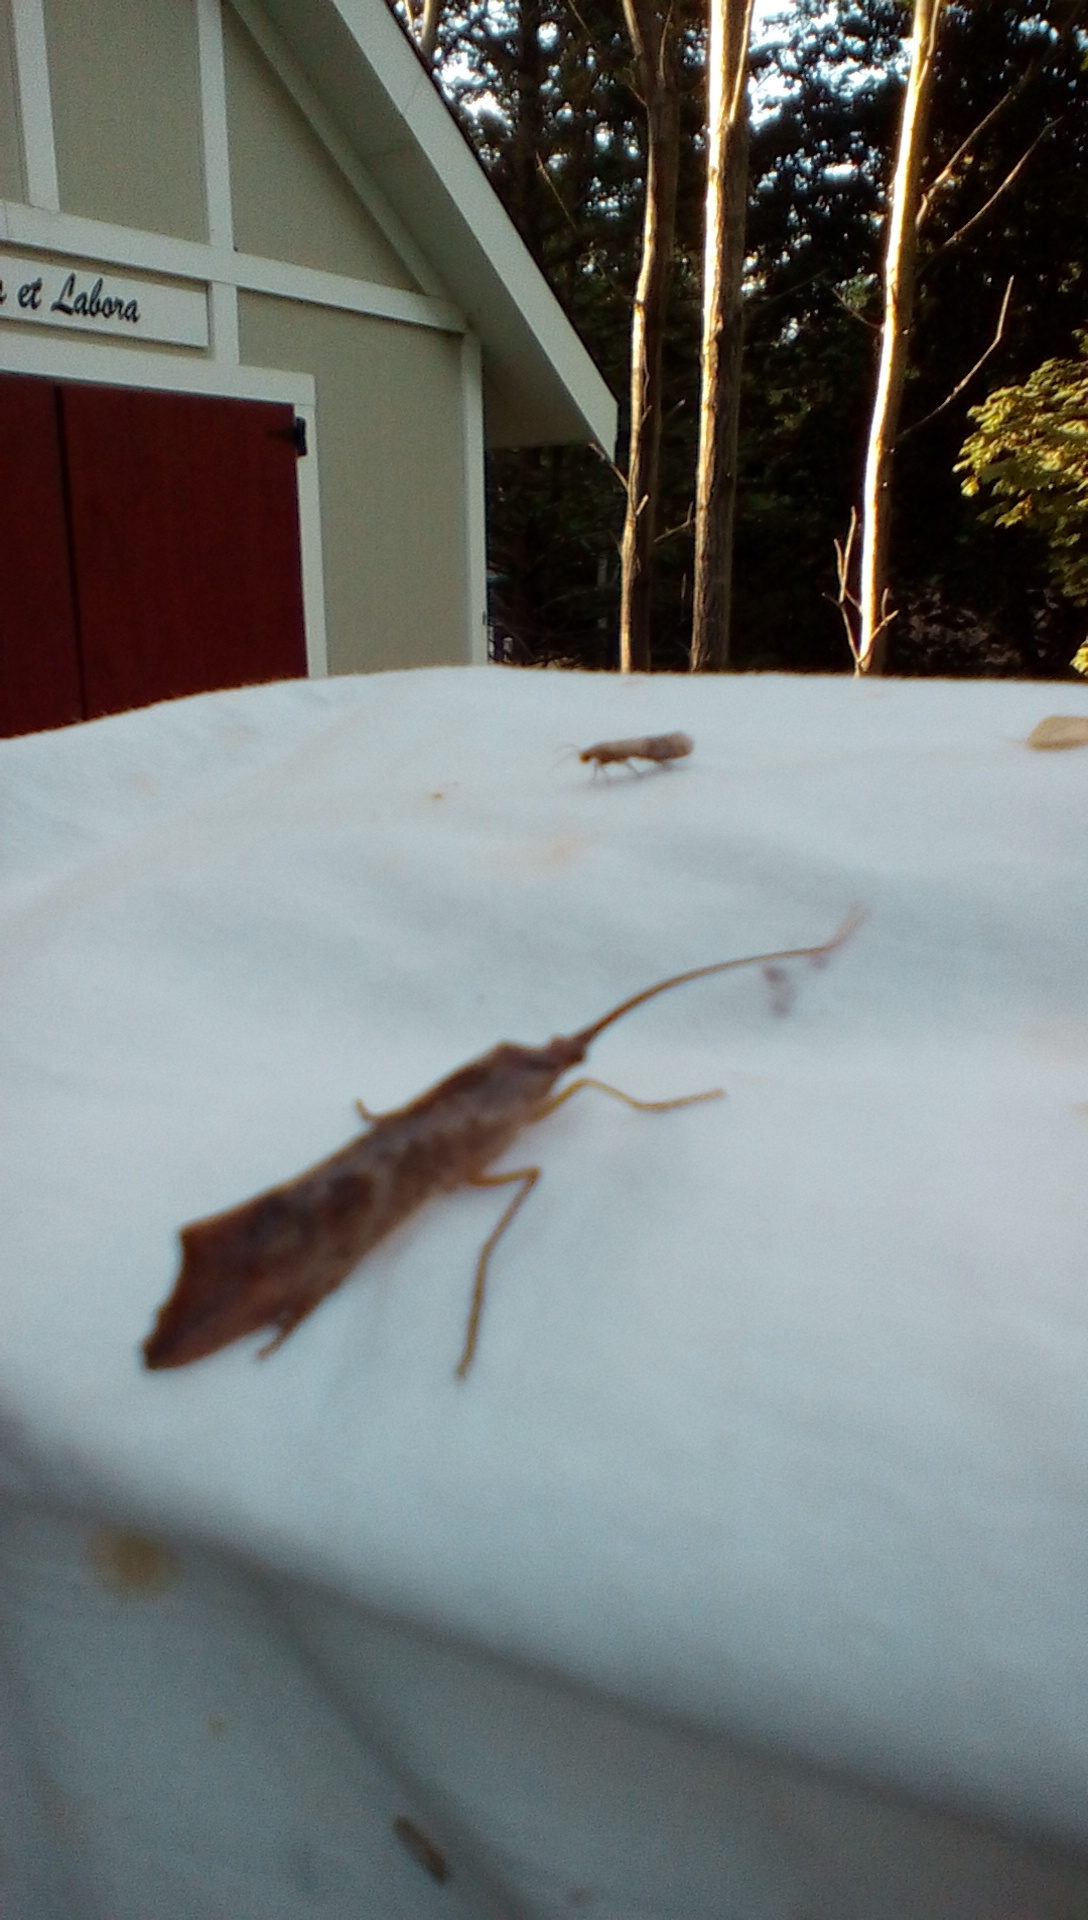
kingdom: Animalia
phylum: Arthropoda
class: Insecta
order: Trichoptera
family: Limnephilidae
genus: Nemotaulius
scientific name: Nemotaulius hostilis
